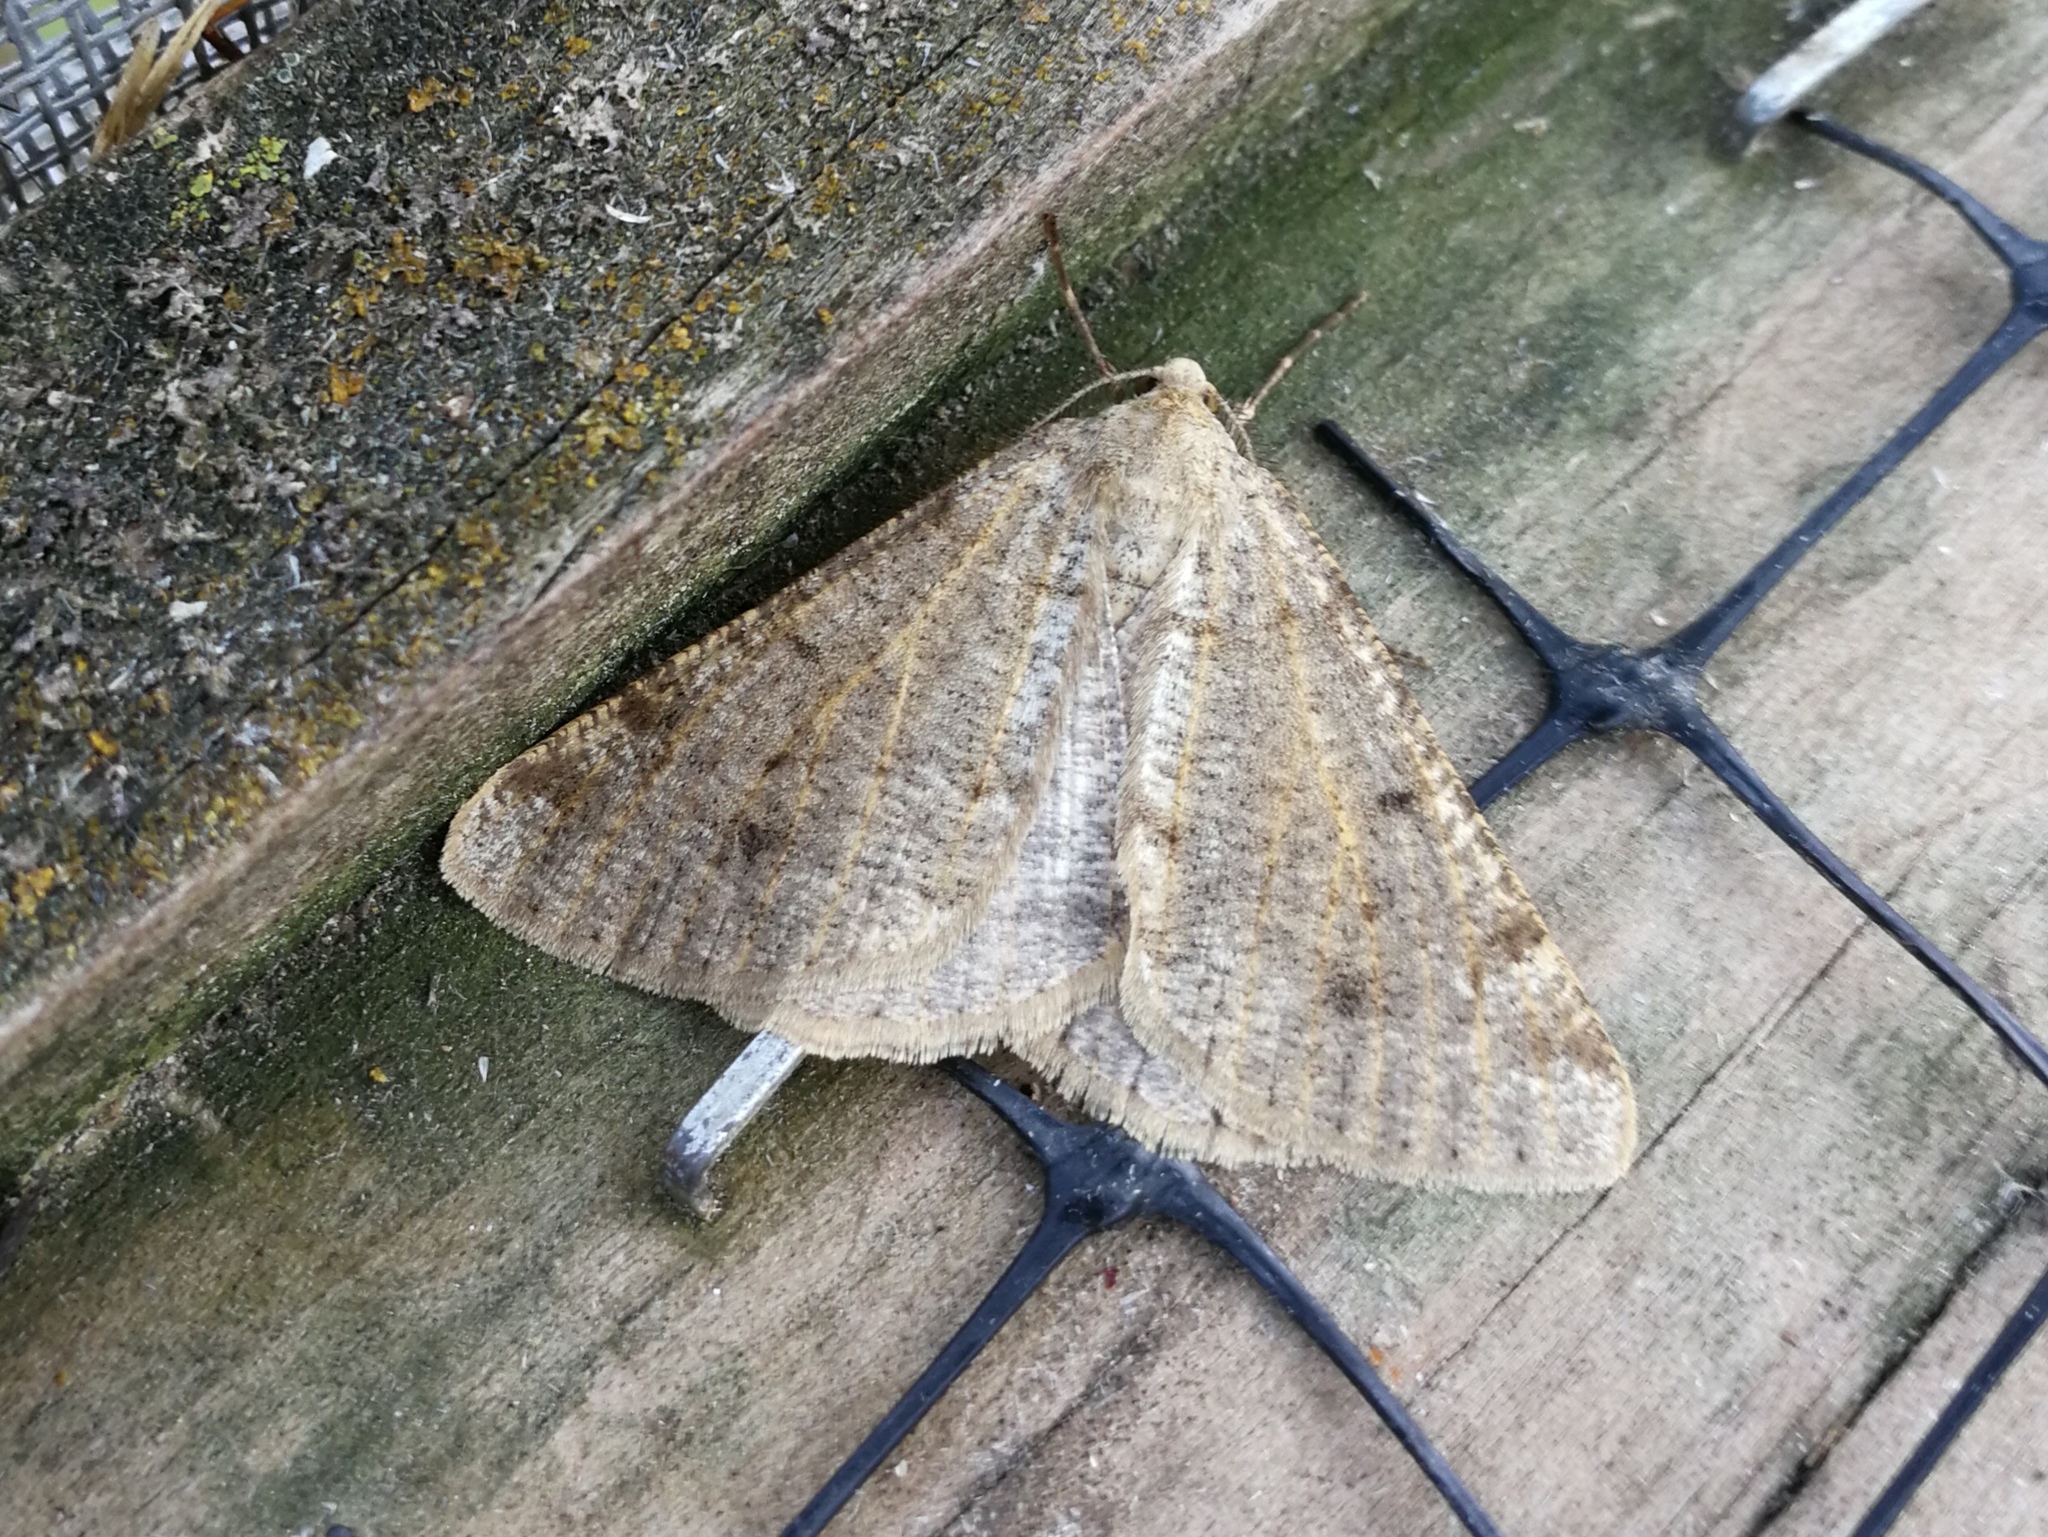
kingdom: Animalia
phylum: Arthropoda
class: Insecta
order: Lepidoptera
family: Geometridae
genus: Isturgia
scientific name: Isturgia miniosaria
